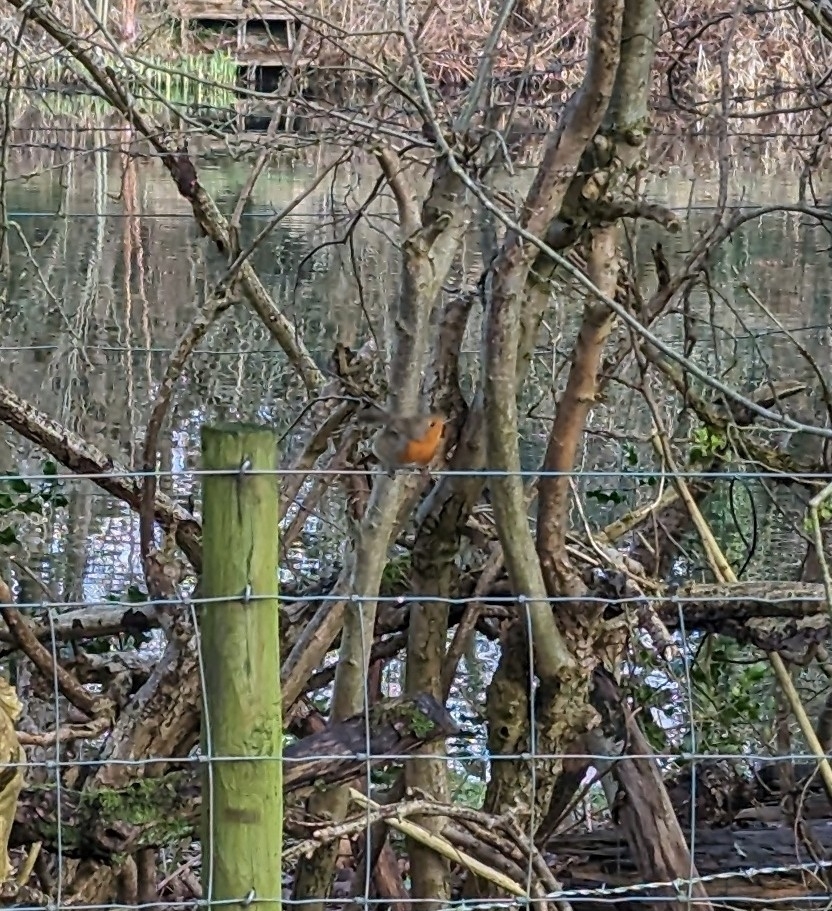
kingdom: Animalia
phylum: Chordata
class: Aves
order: Passeriformes
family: Muscicapidae
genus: Erithacus
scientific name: Erithacus rubecula
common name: European robin
